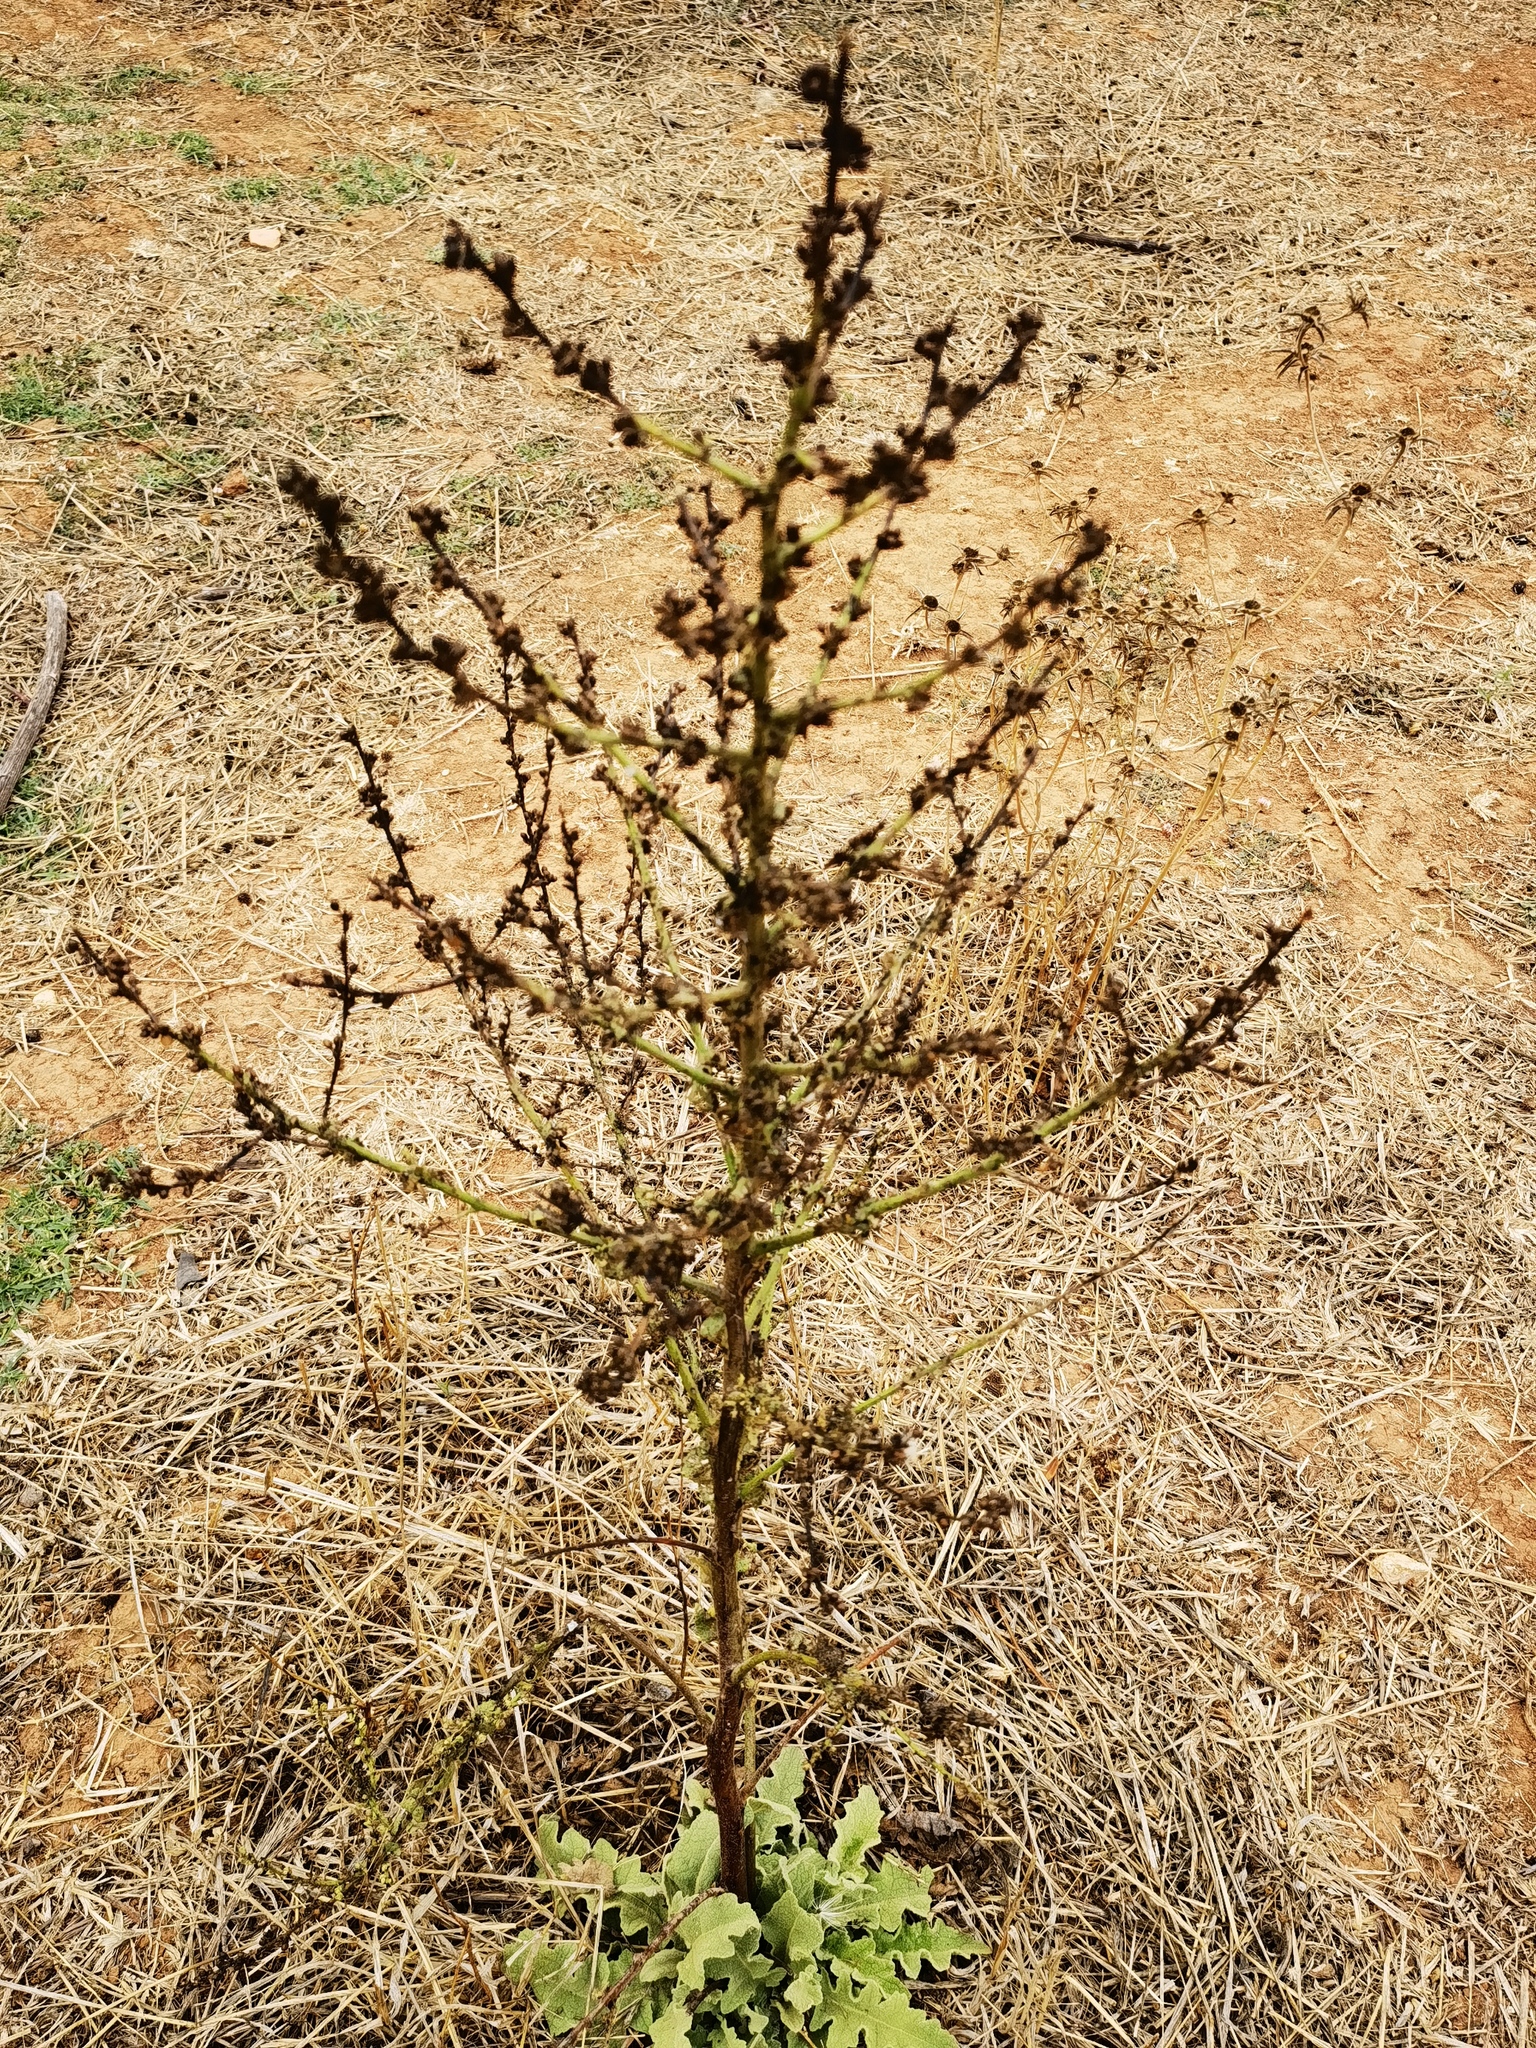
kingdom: Plantae
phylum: Tracheophyta
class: Magnoliopsida
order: Lamiales
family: Scrophulariaceae
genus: Verbascum
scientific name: Verbascum sinuatum
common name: Wavyleaf mullein
